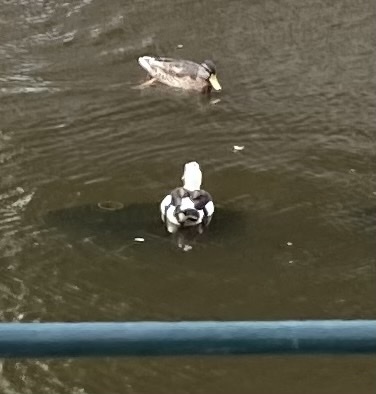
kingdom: Animalia
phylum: Chordata
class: Aves
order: Anseriformes
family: Anatidae
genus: Anas
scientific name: Anas platyrhynchos
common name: Mallard
